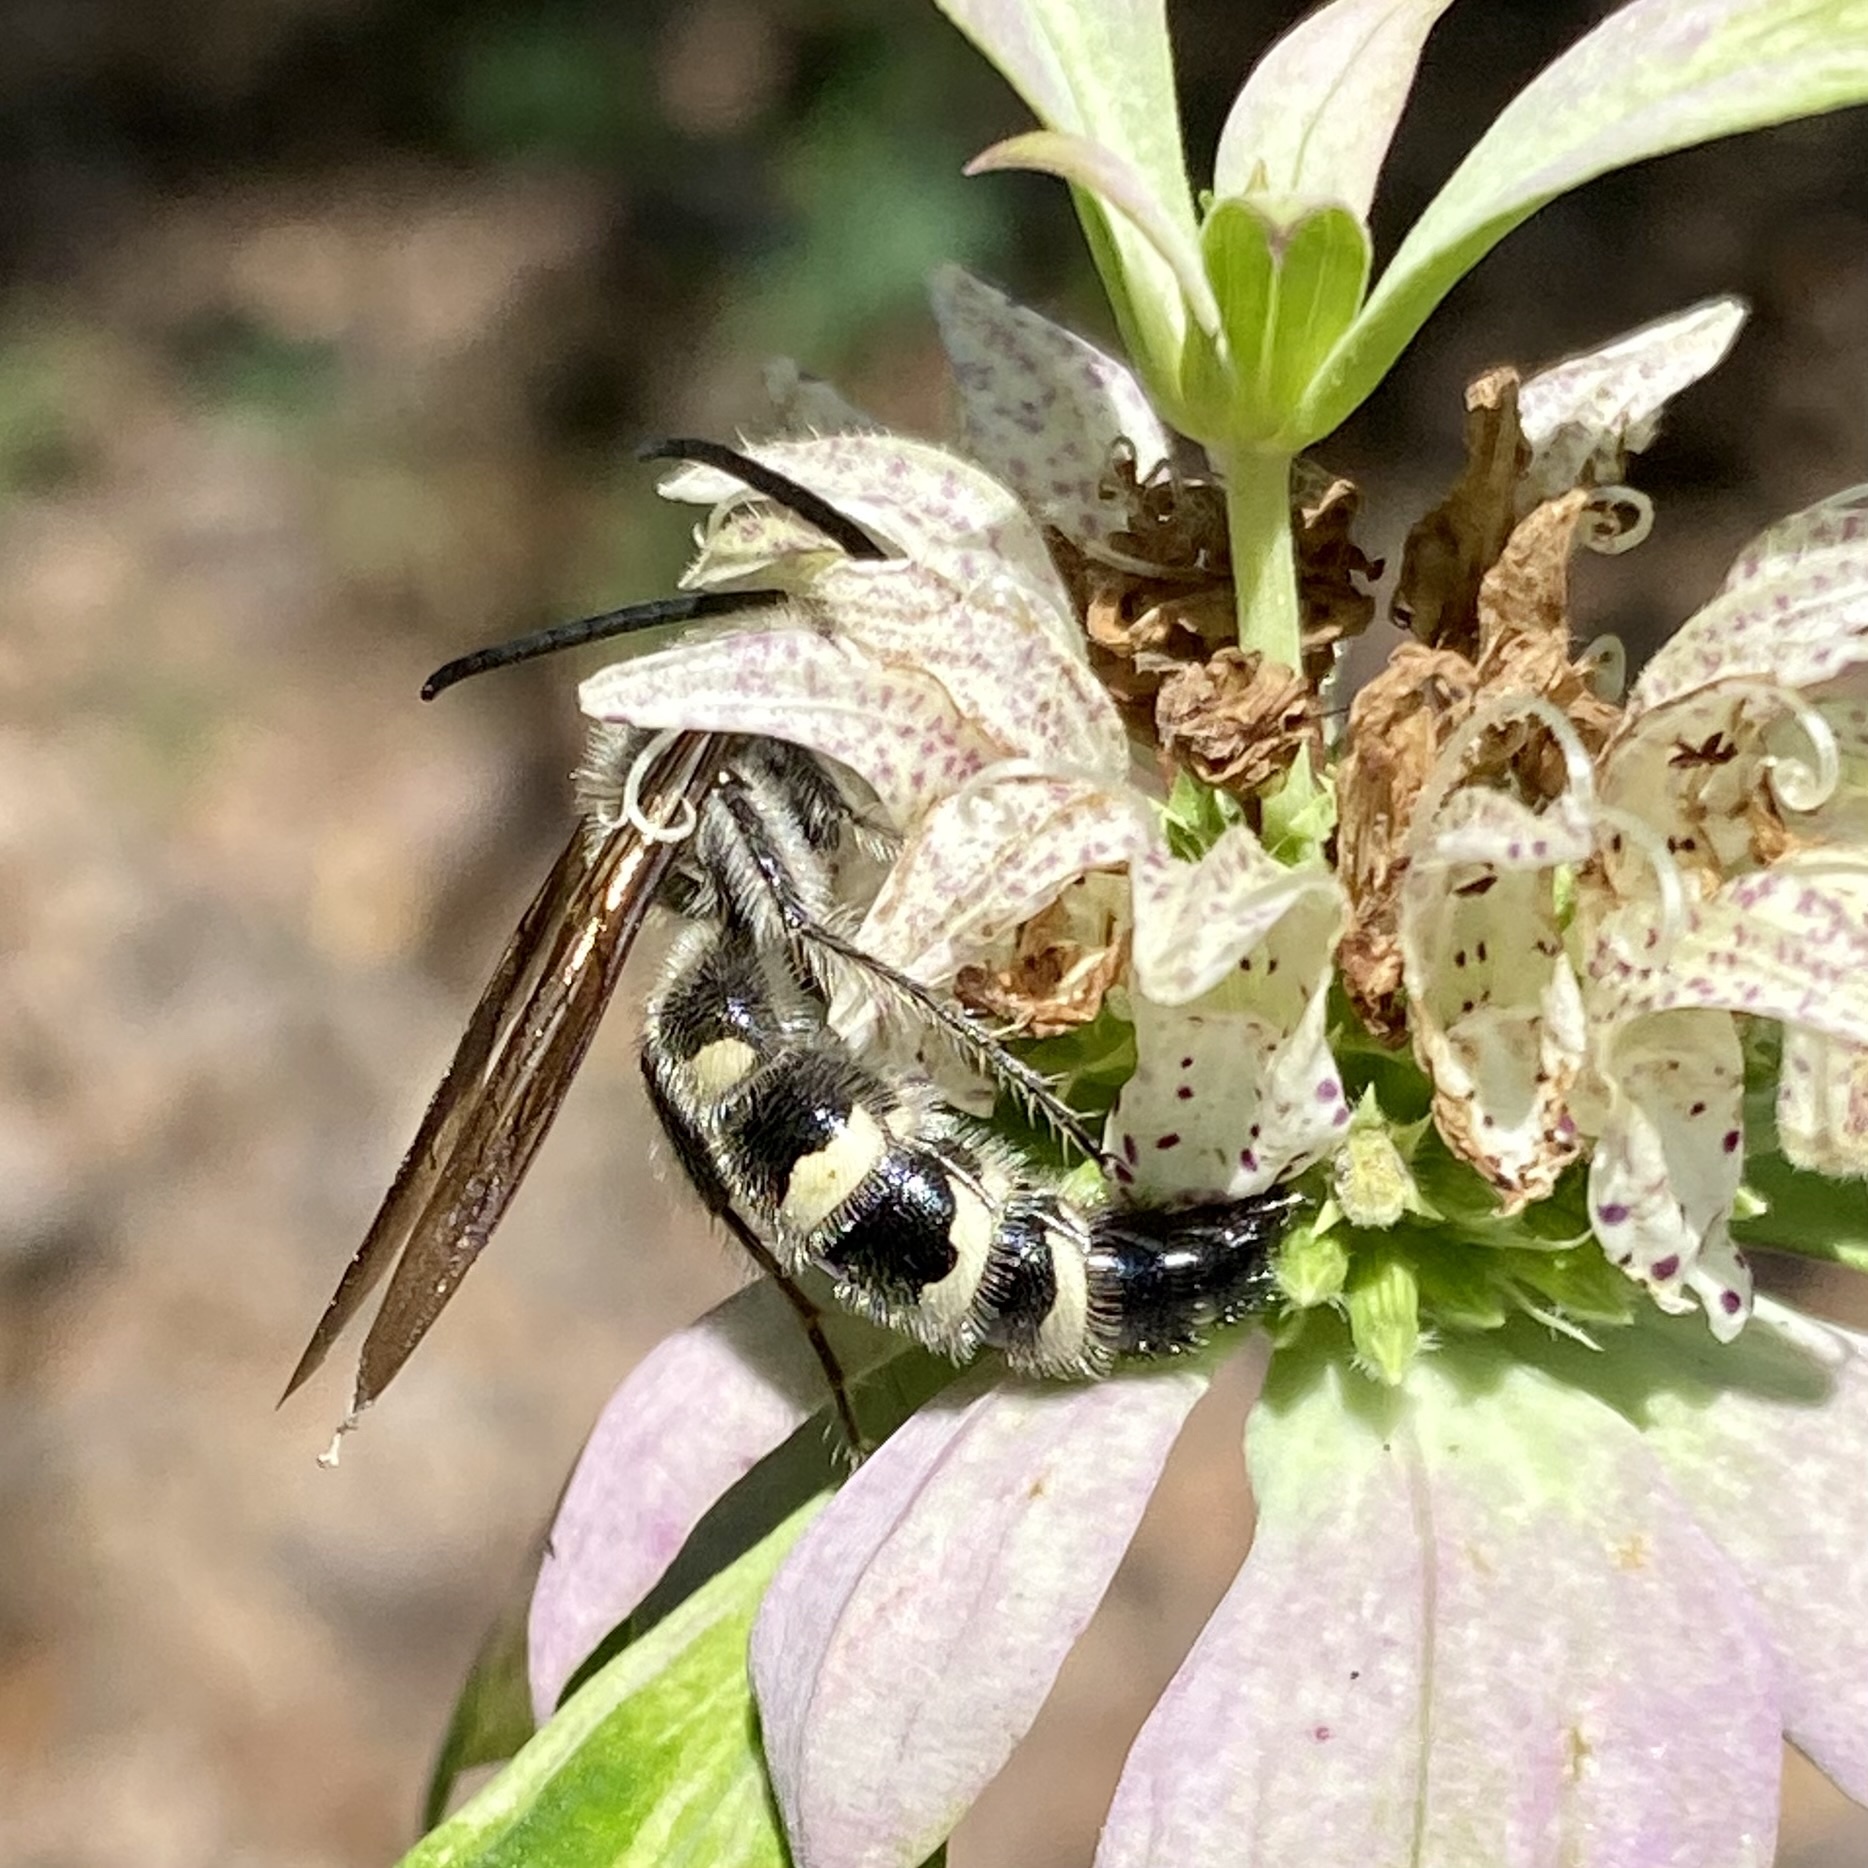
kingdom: Animalia
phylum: Arthropoda
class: Insecta
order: Hymenoptera
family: Scoliidae
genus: Dielis
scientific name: Dielis
